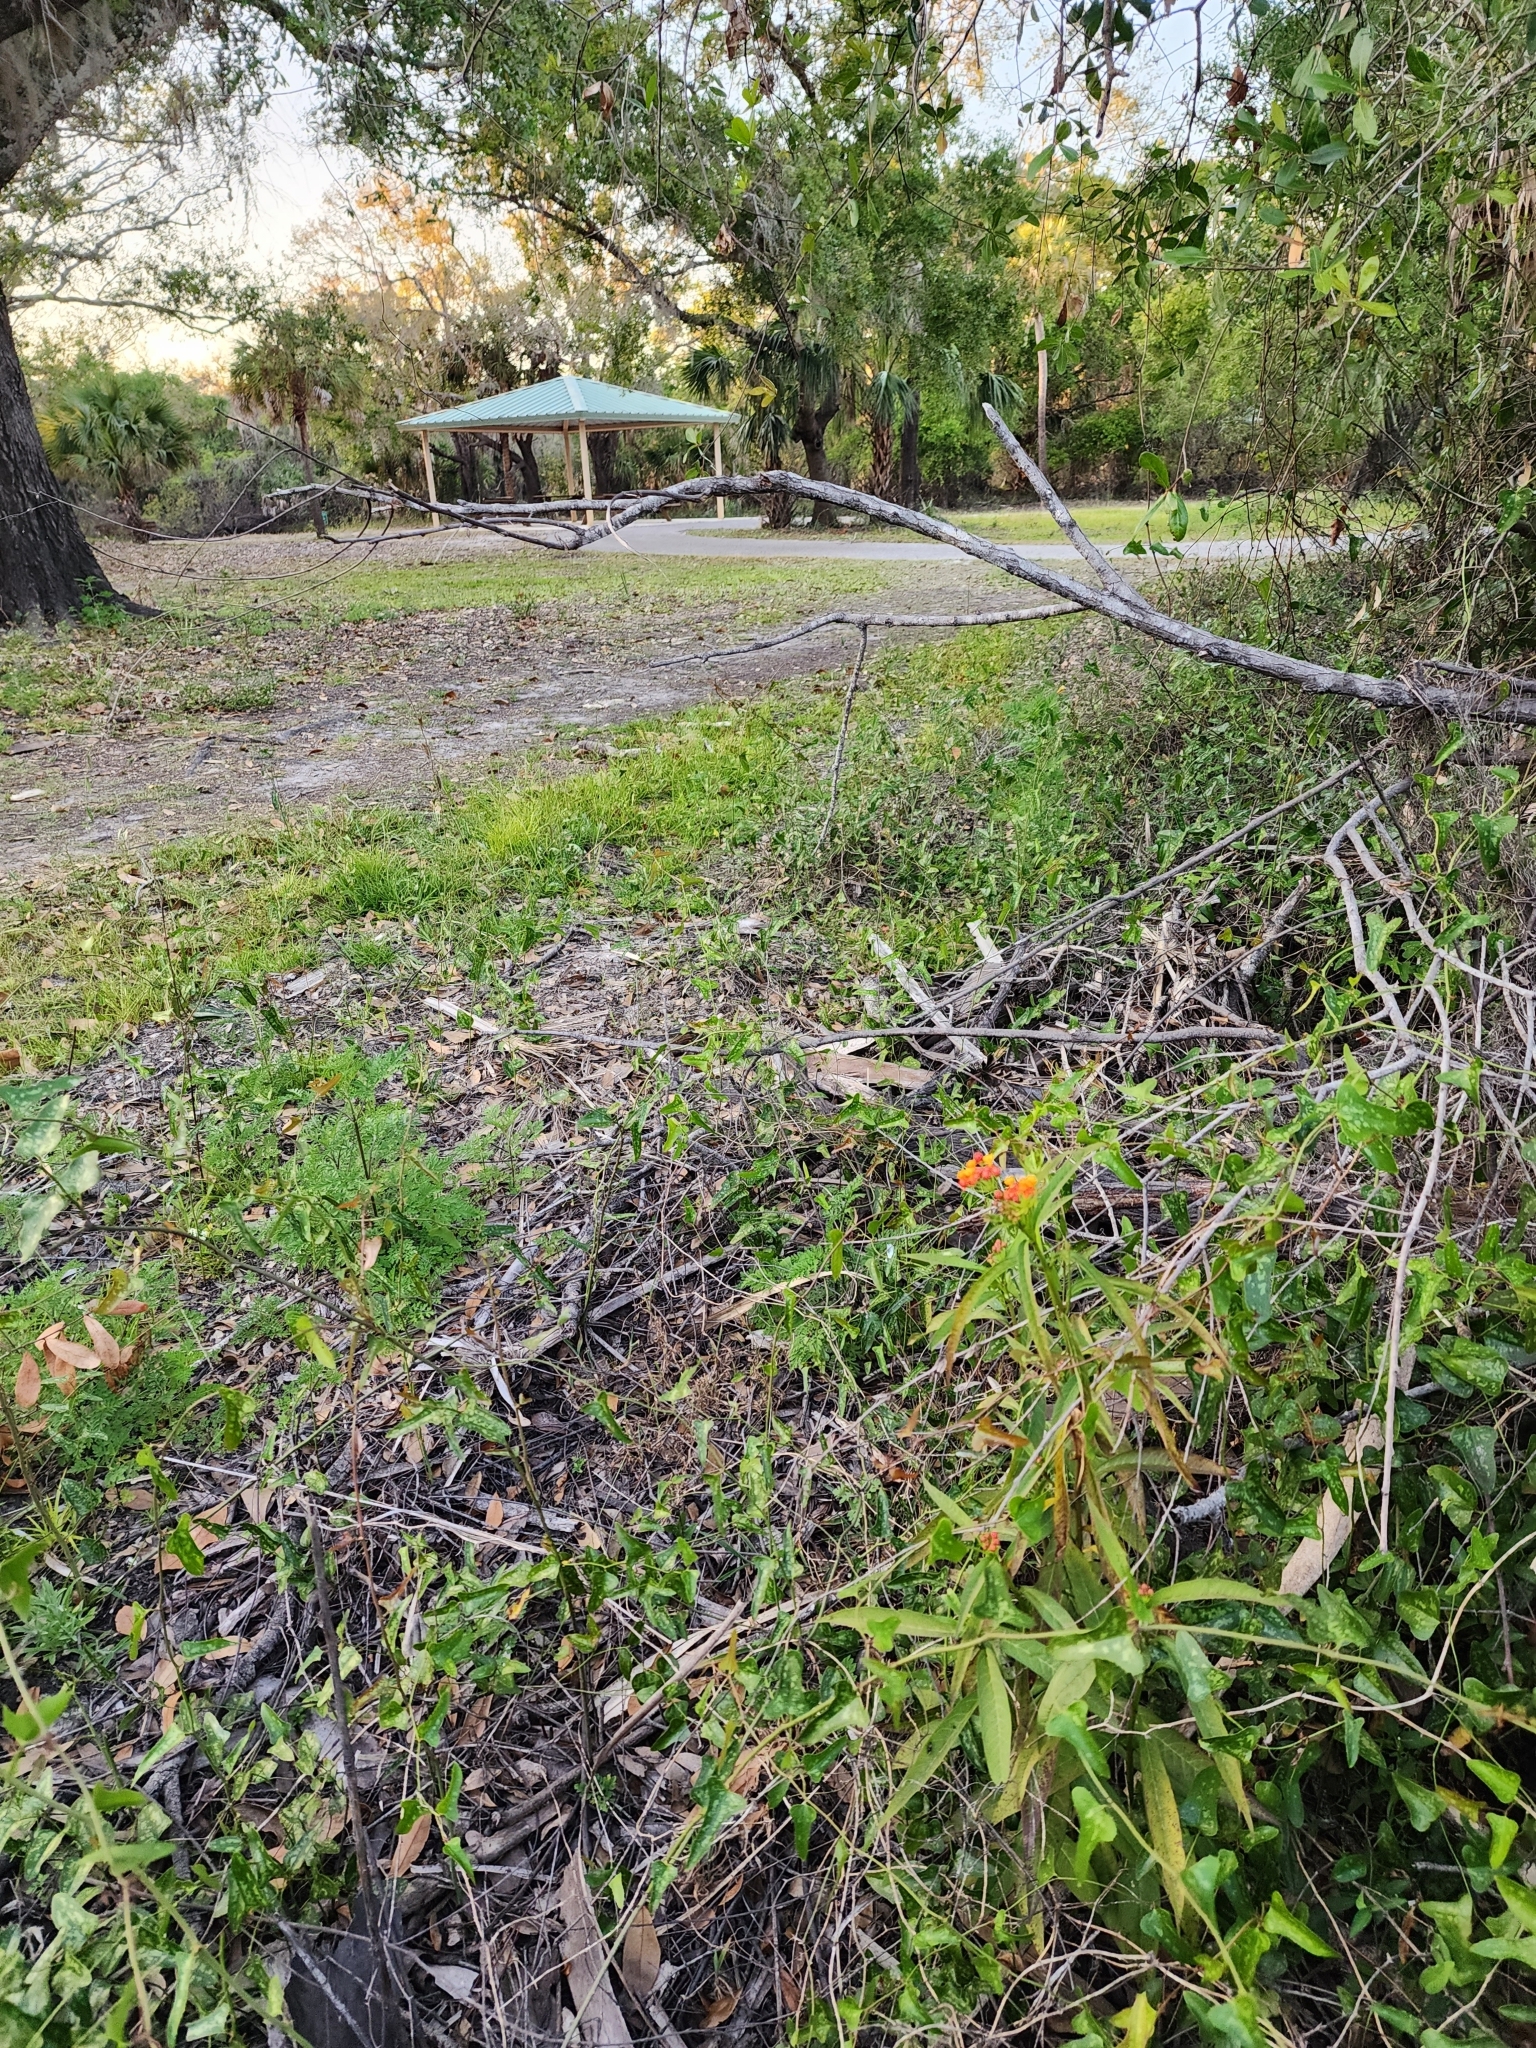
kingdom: Plantae
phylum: Tracheophyta
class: Magnoliopsida
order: Gentianales
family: Apocynaceae
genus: Asclepias
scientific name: Asclepias curassavica
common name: Bloodflower
